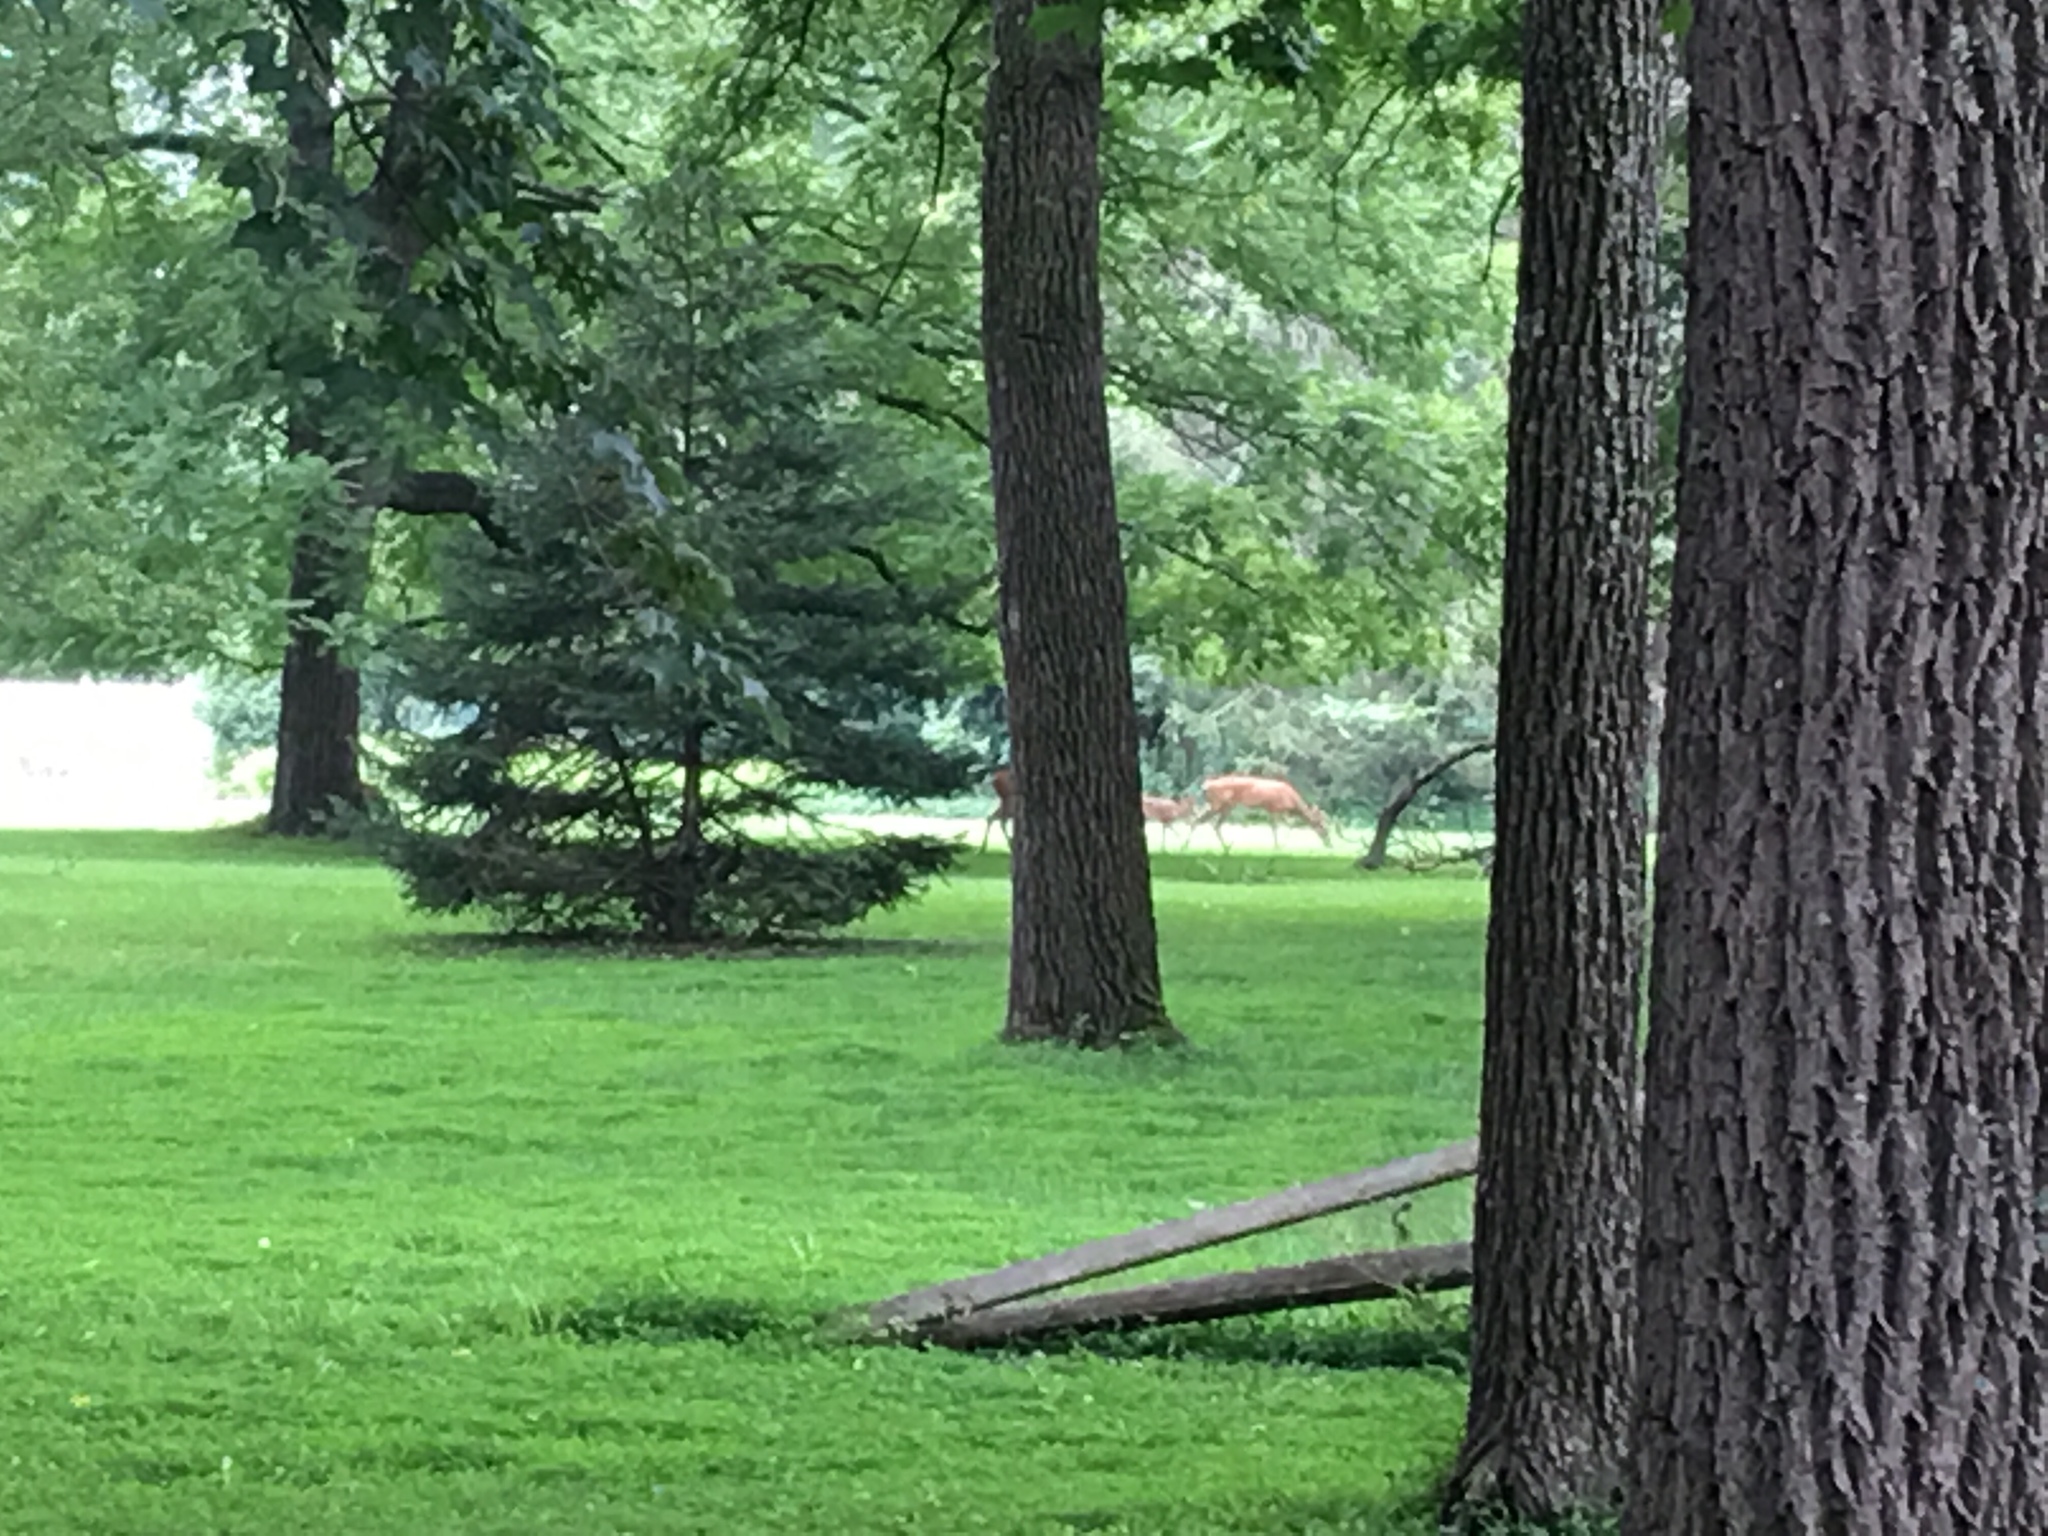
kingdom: Animalia
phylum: Chordata
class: Mammalia
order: Artiodactyla
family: Cervidae
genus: Odocoileus
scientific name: Odocoileus virginianus
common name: White-tailed deer
